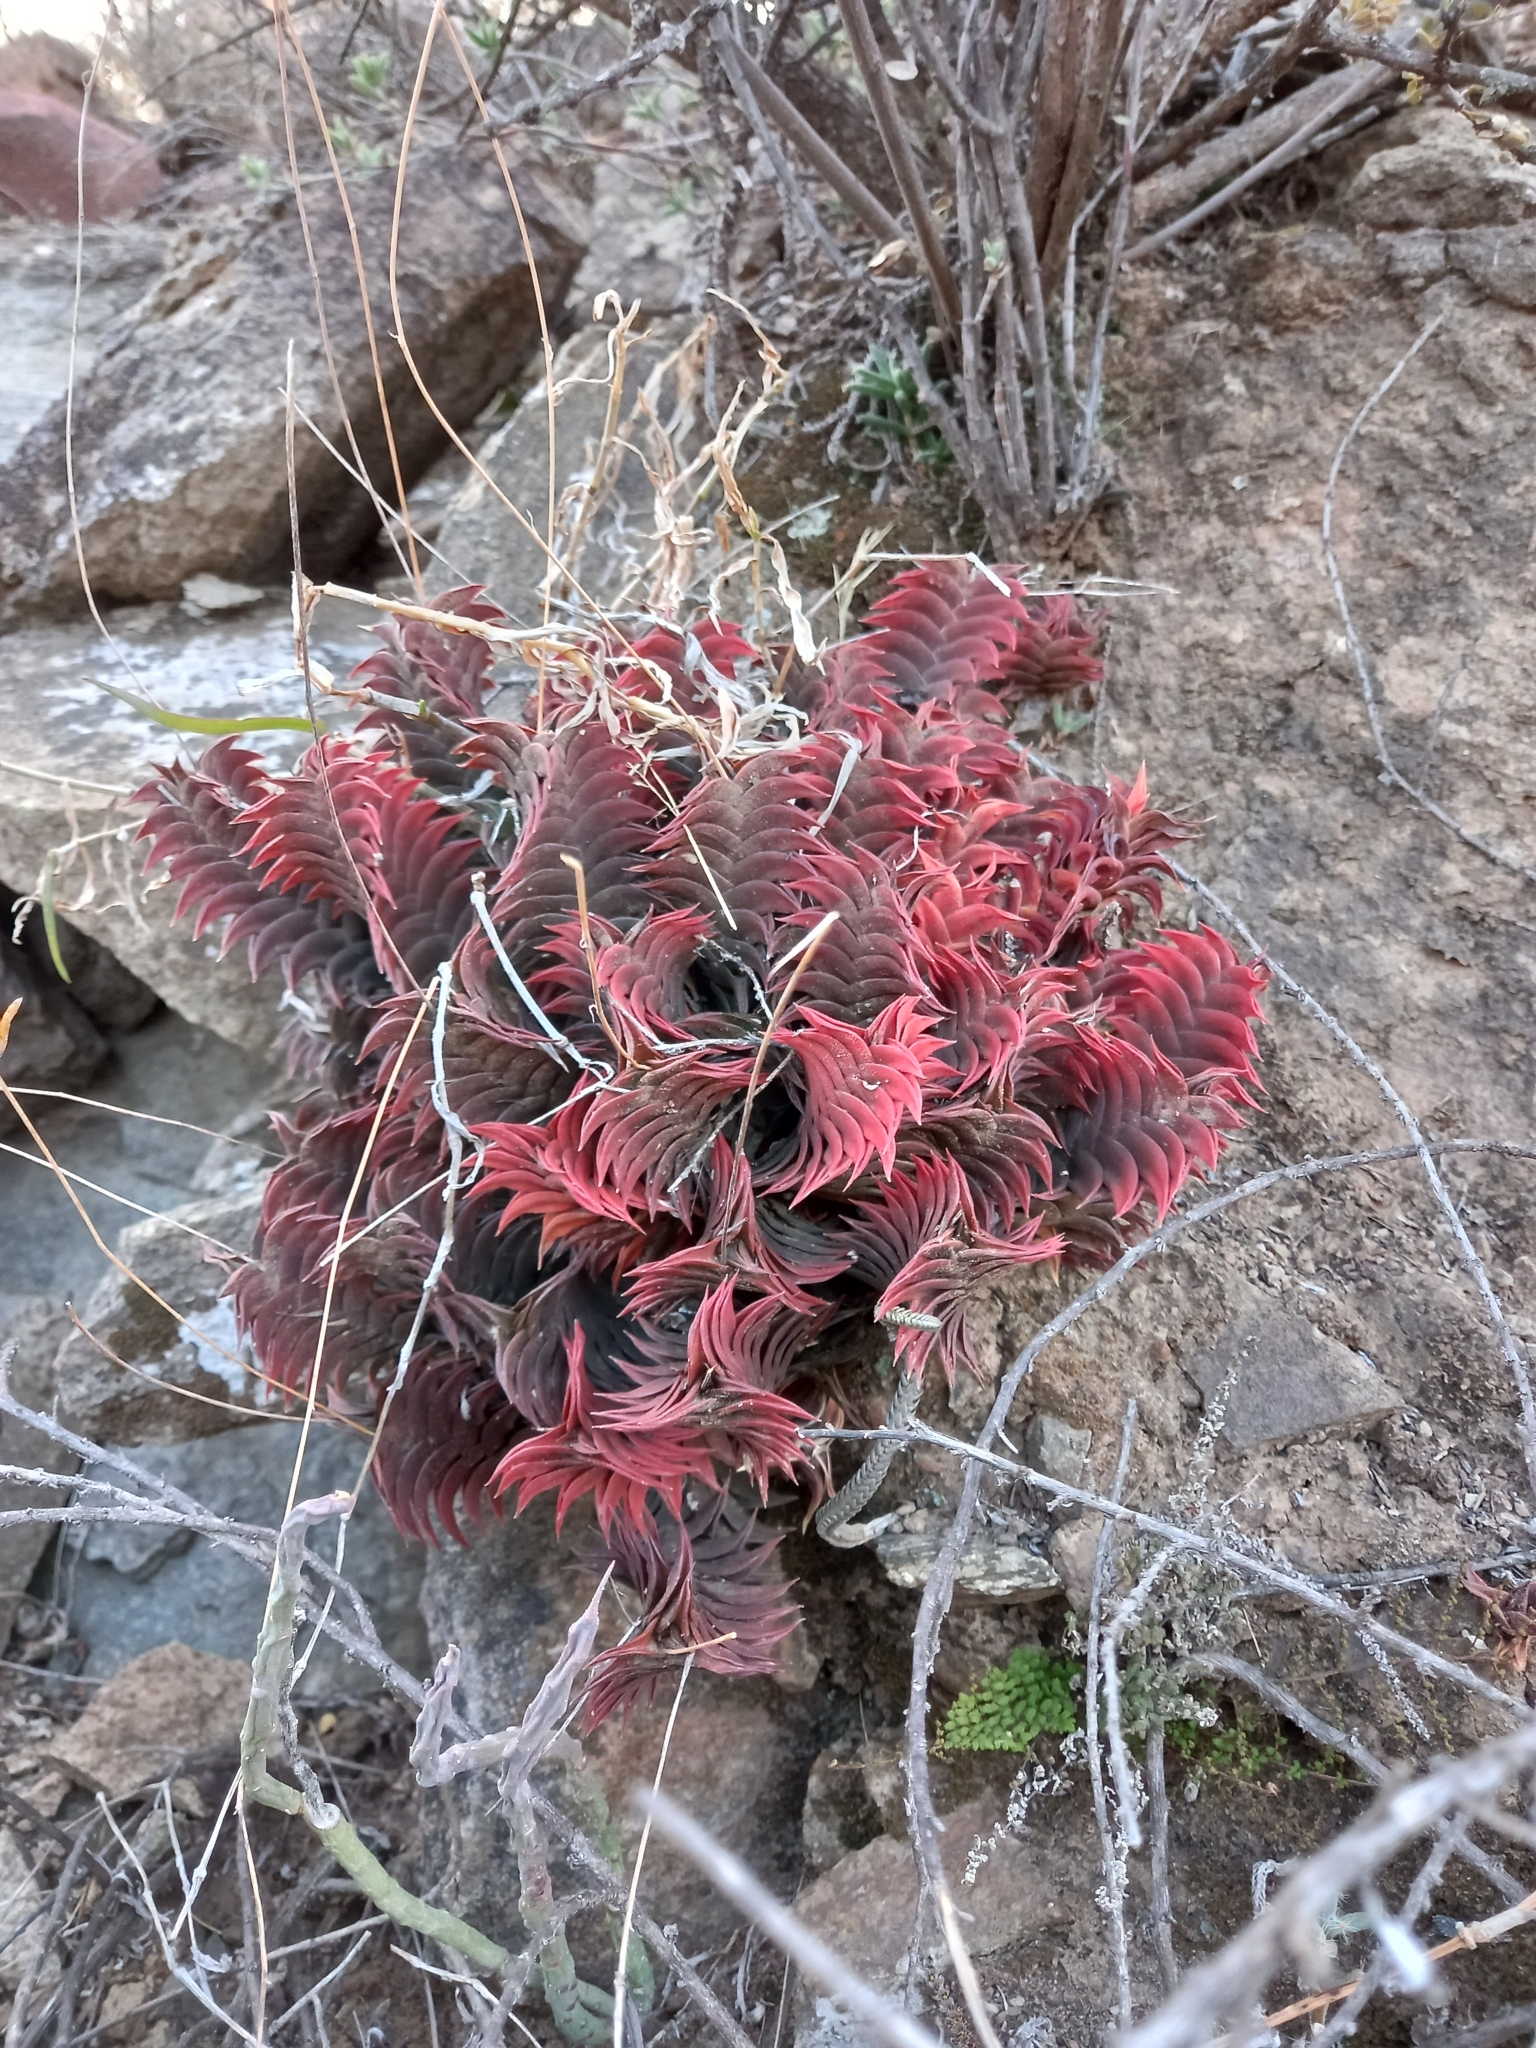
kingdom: Plantae
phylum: Tracheophyta
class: Liliopsida
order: Asparagales
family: Asphodelaceae
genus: Haworthiopsis
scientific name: Haworthiopsis viscosa
